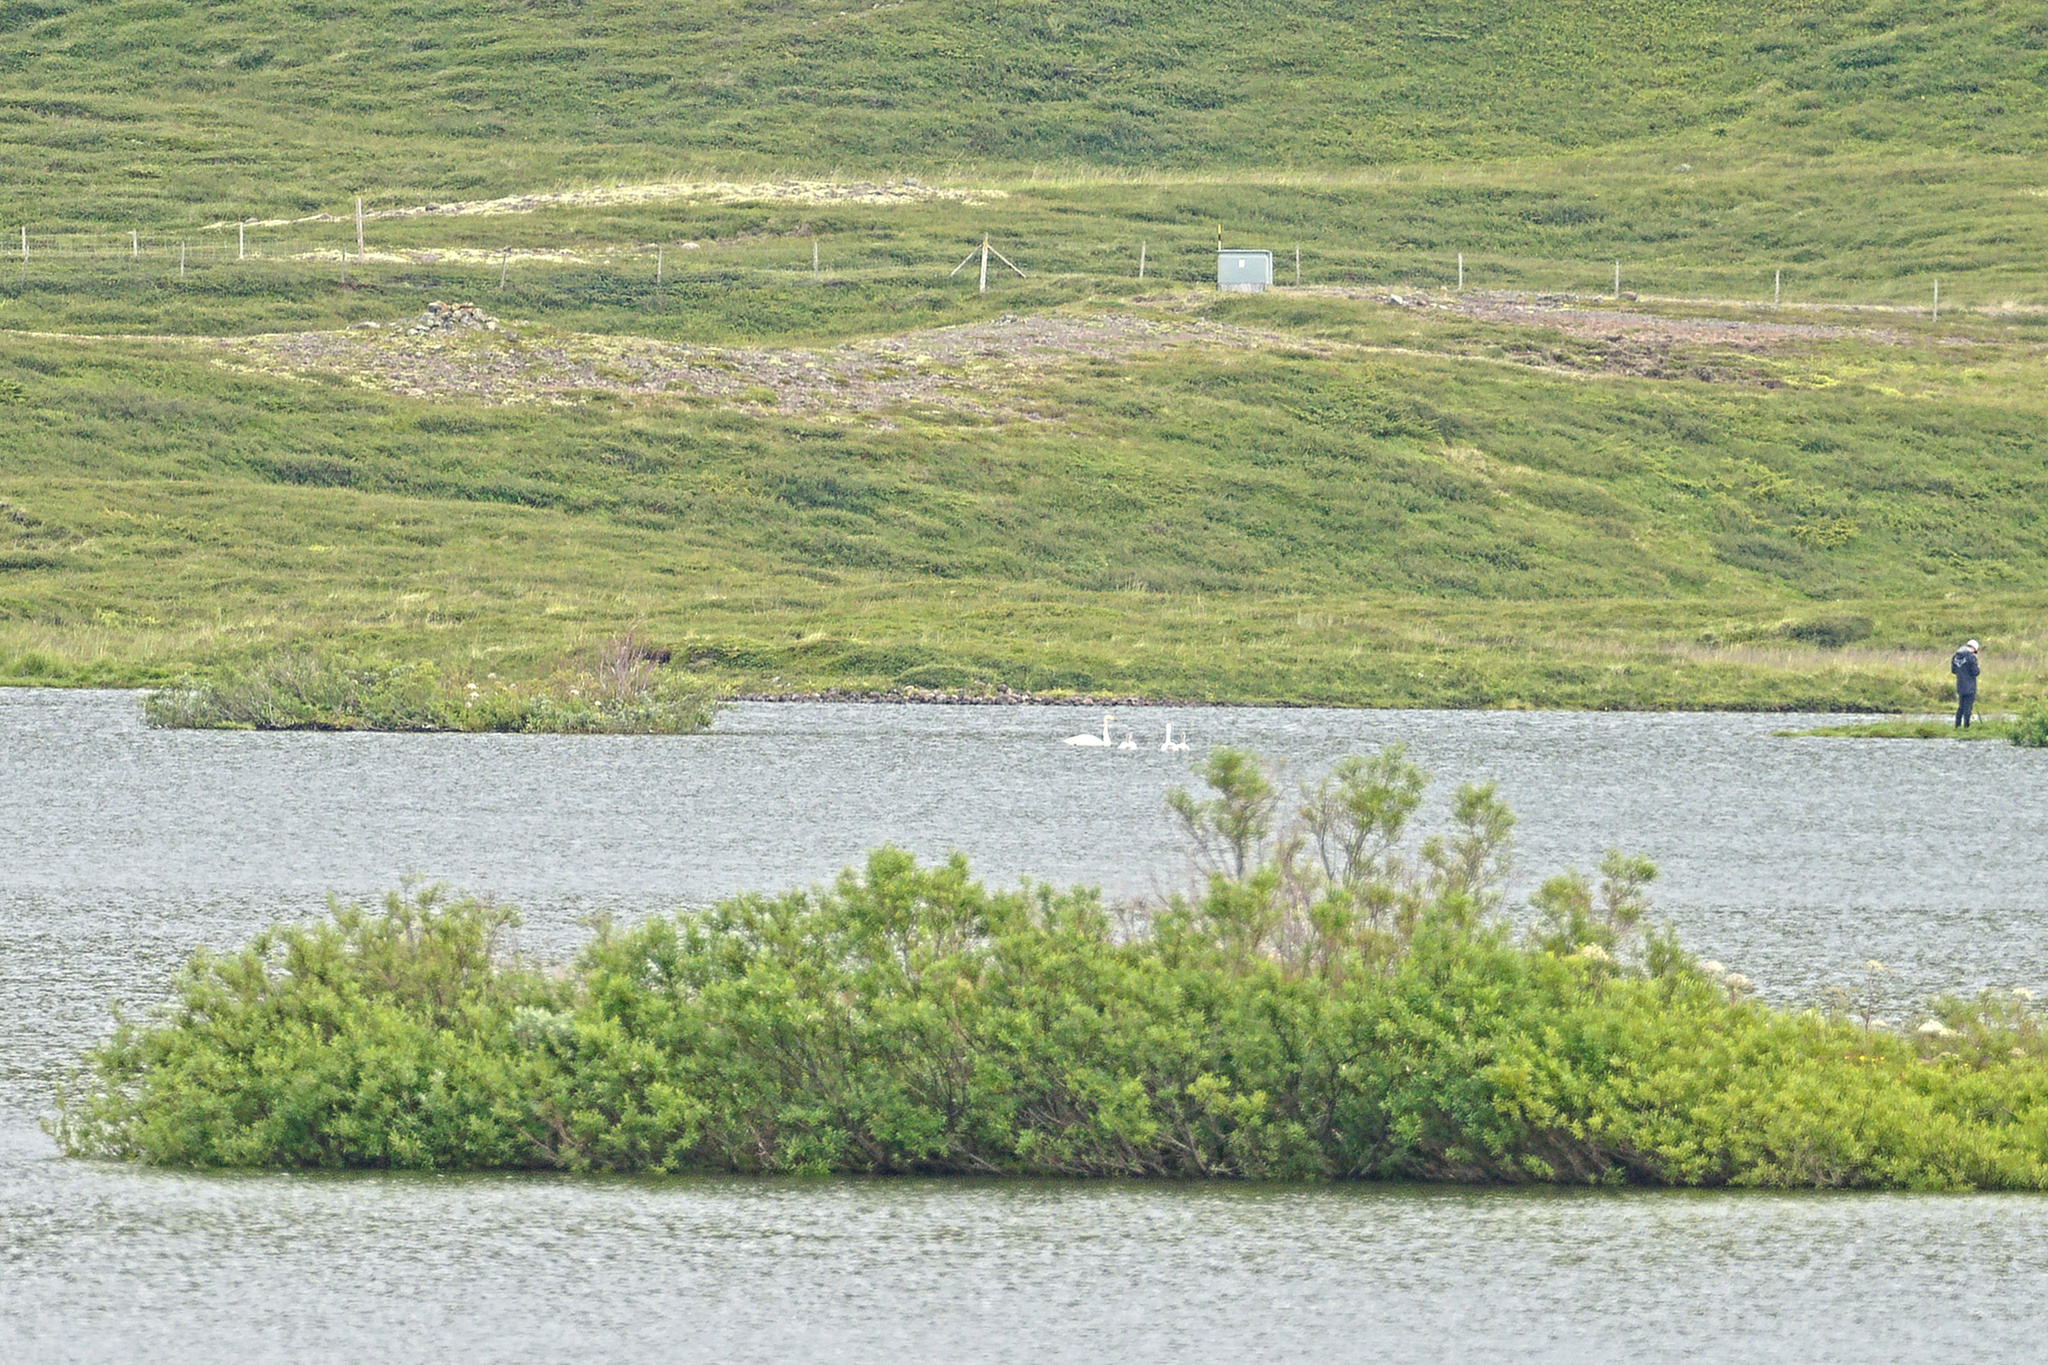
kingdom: Animalia
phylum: Chordata
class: Aves
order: Anseriformes
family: Anatidae
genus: Cygnus
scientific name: Cygnus cygnus
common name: Whooper swan
